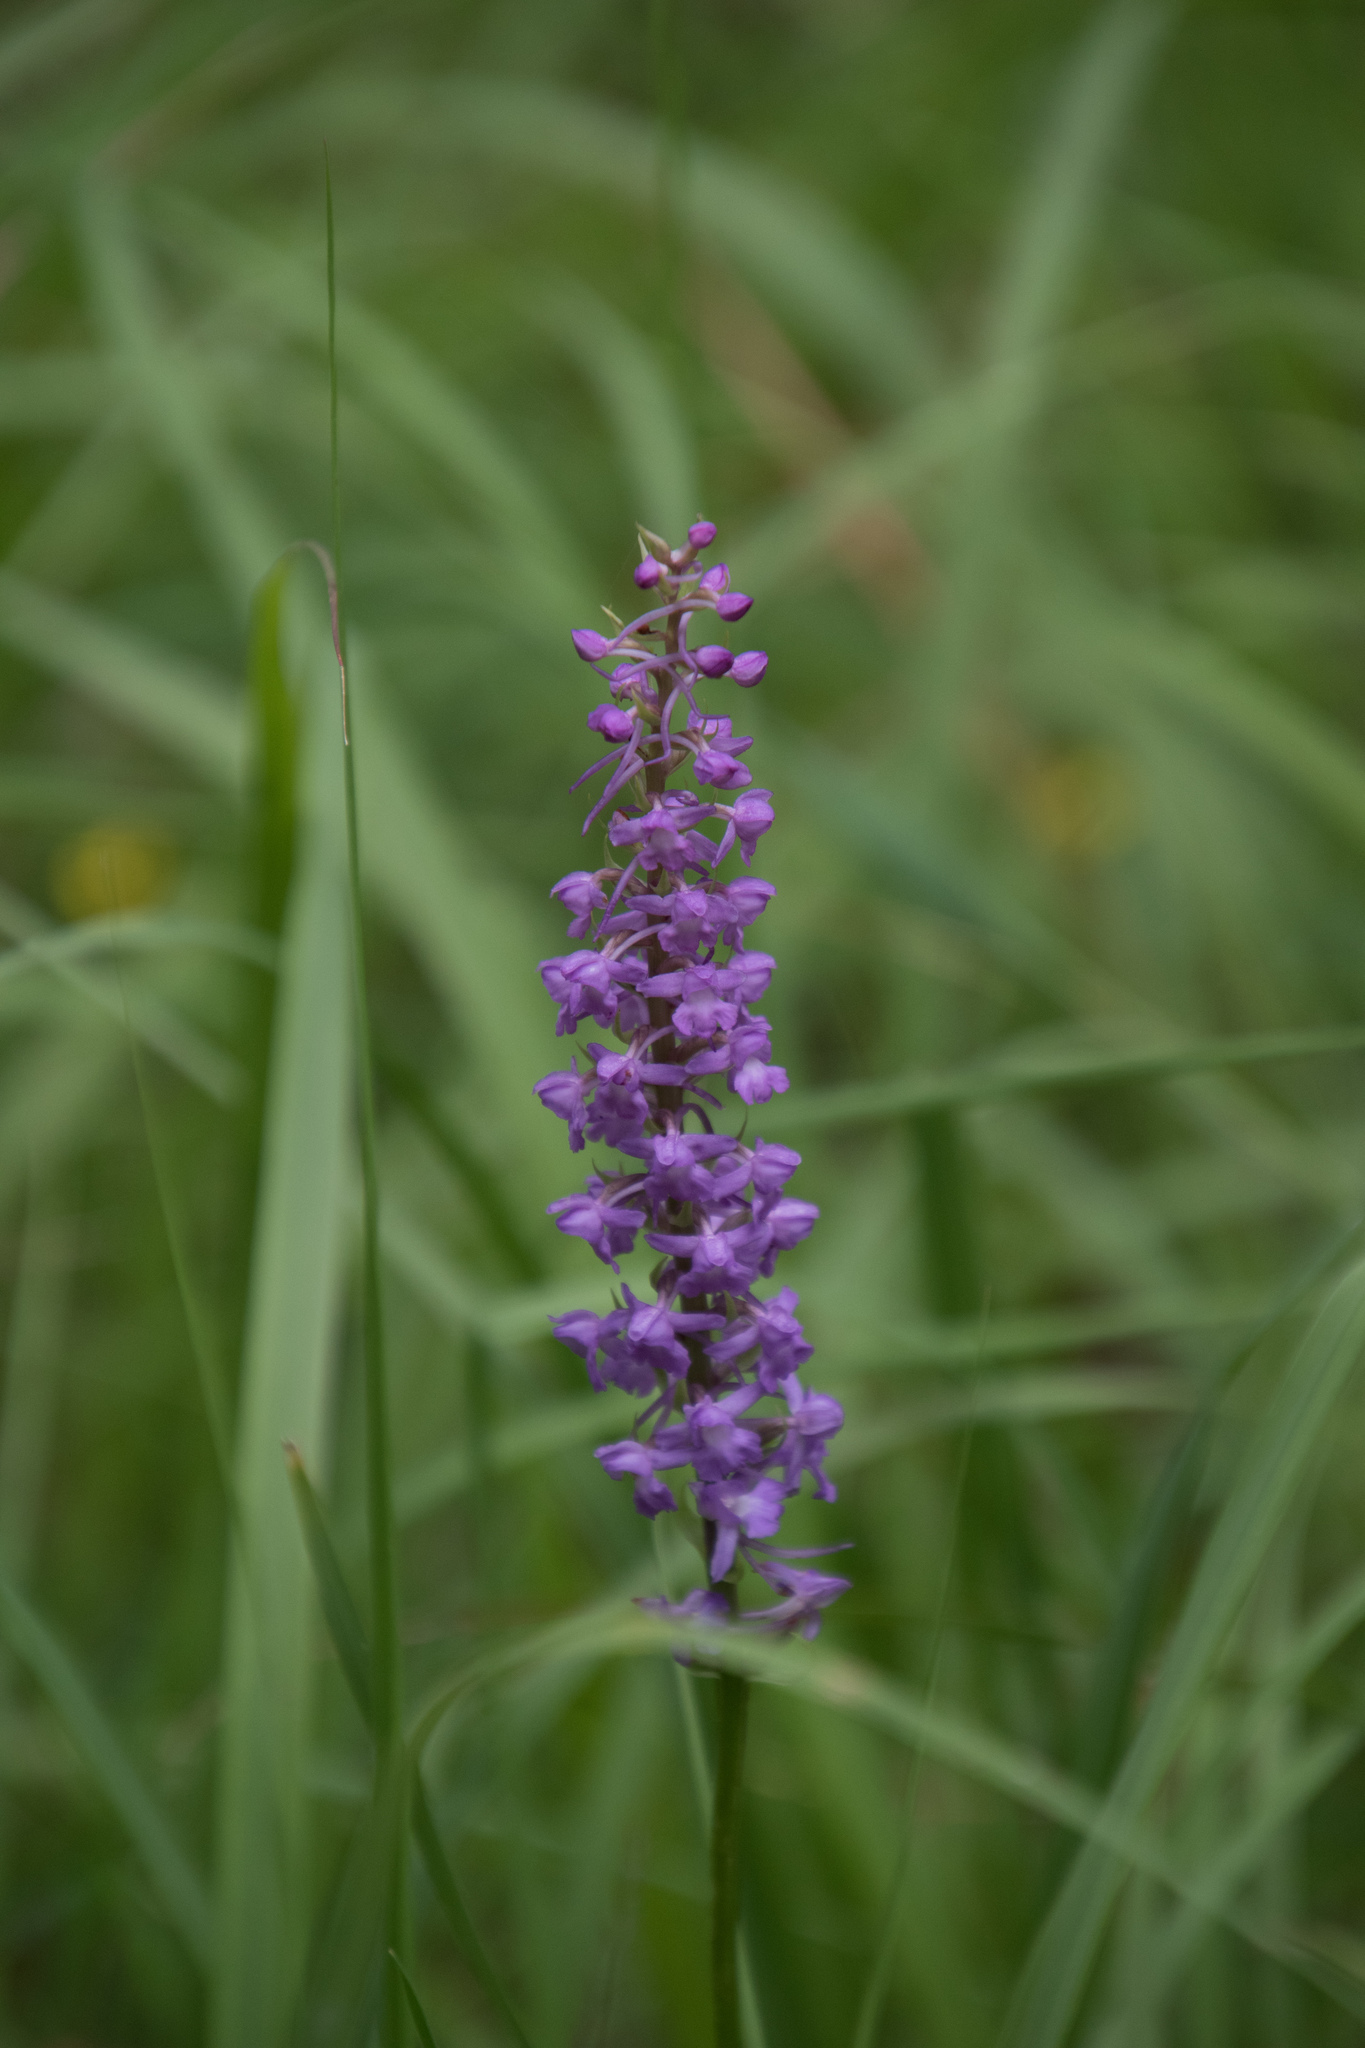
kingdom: Plantae
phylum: Tracheophyta
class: Liliopsida
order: Asparagales
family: Orchidaceae
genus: Gymnadenia
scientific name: Gymnadenia conopsea
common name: Fragrant orchid
